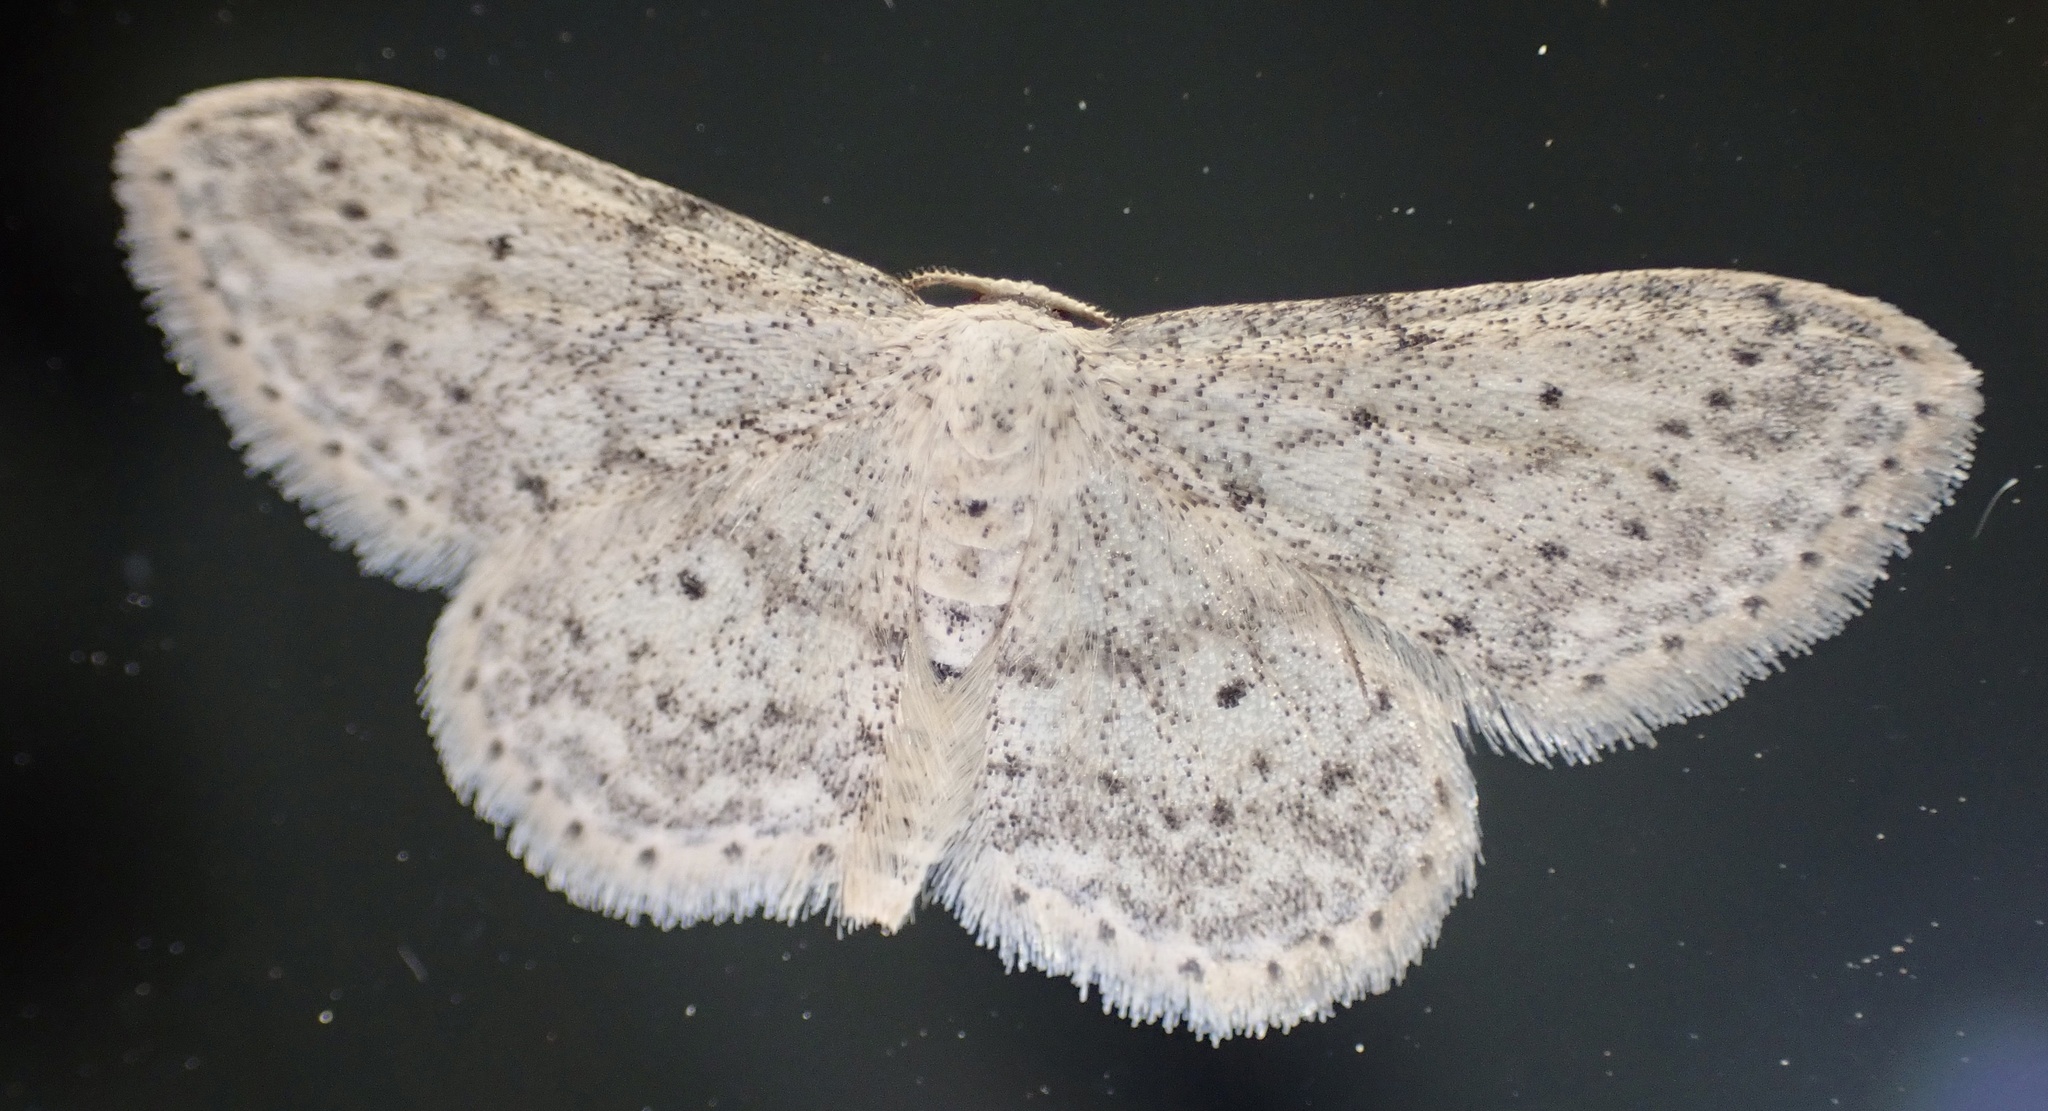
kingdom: Animalia
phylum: Arthropoda
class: Insecta
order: Lepidoptera
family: Geometridae
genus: Idaea
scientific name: Idaea seriata
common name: Small dusty wave
